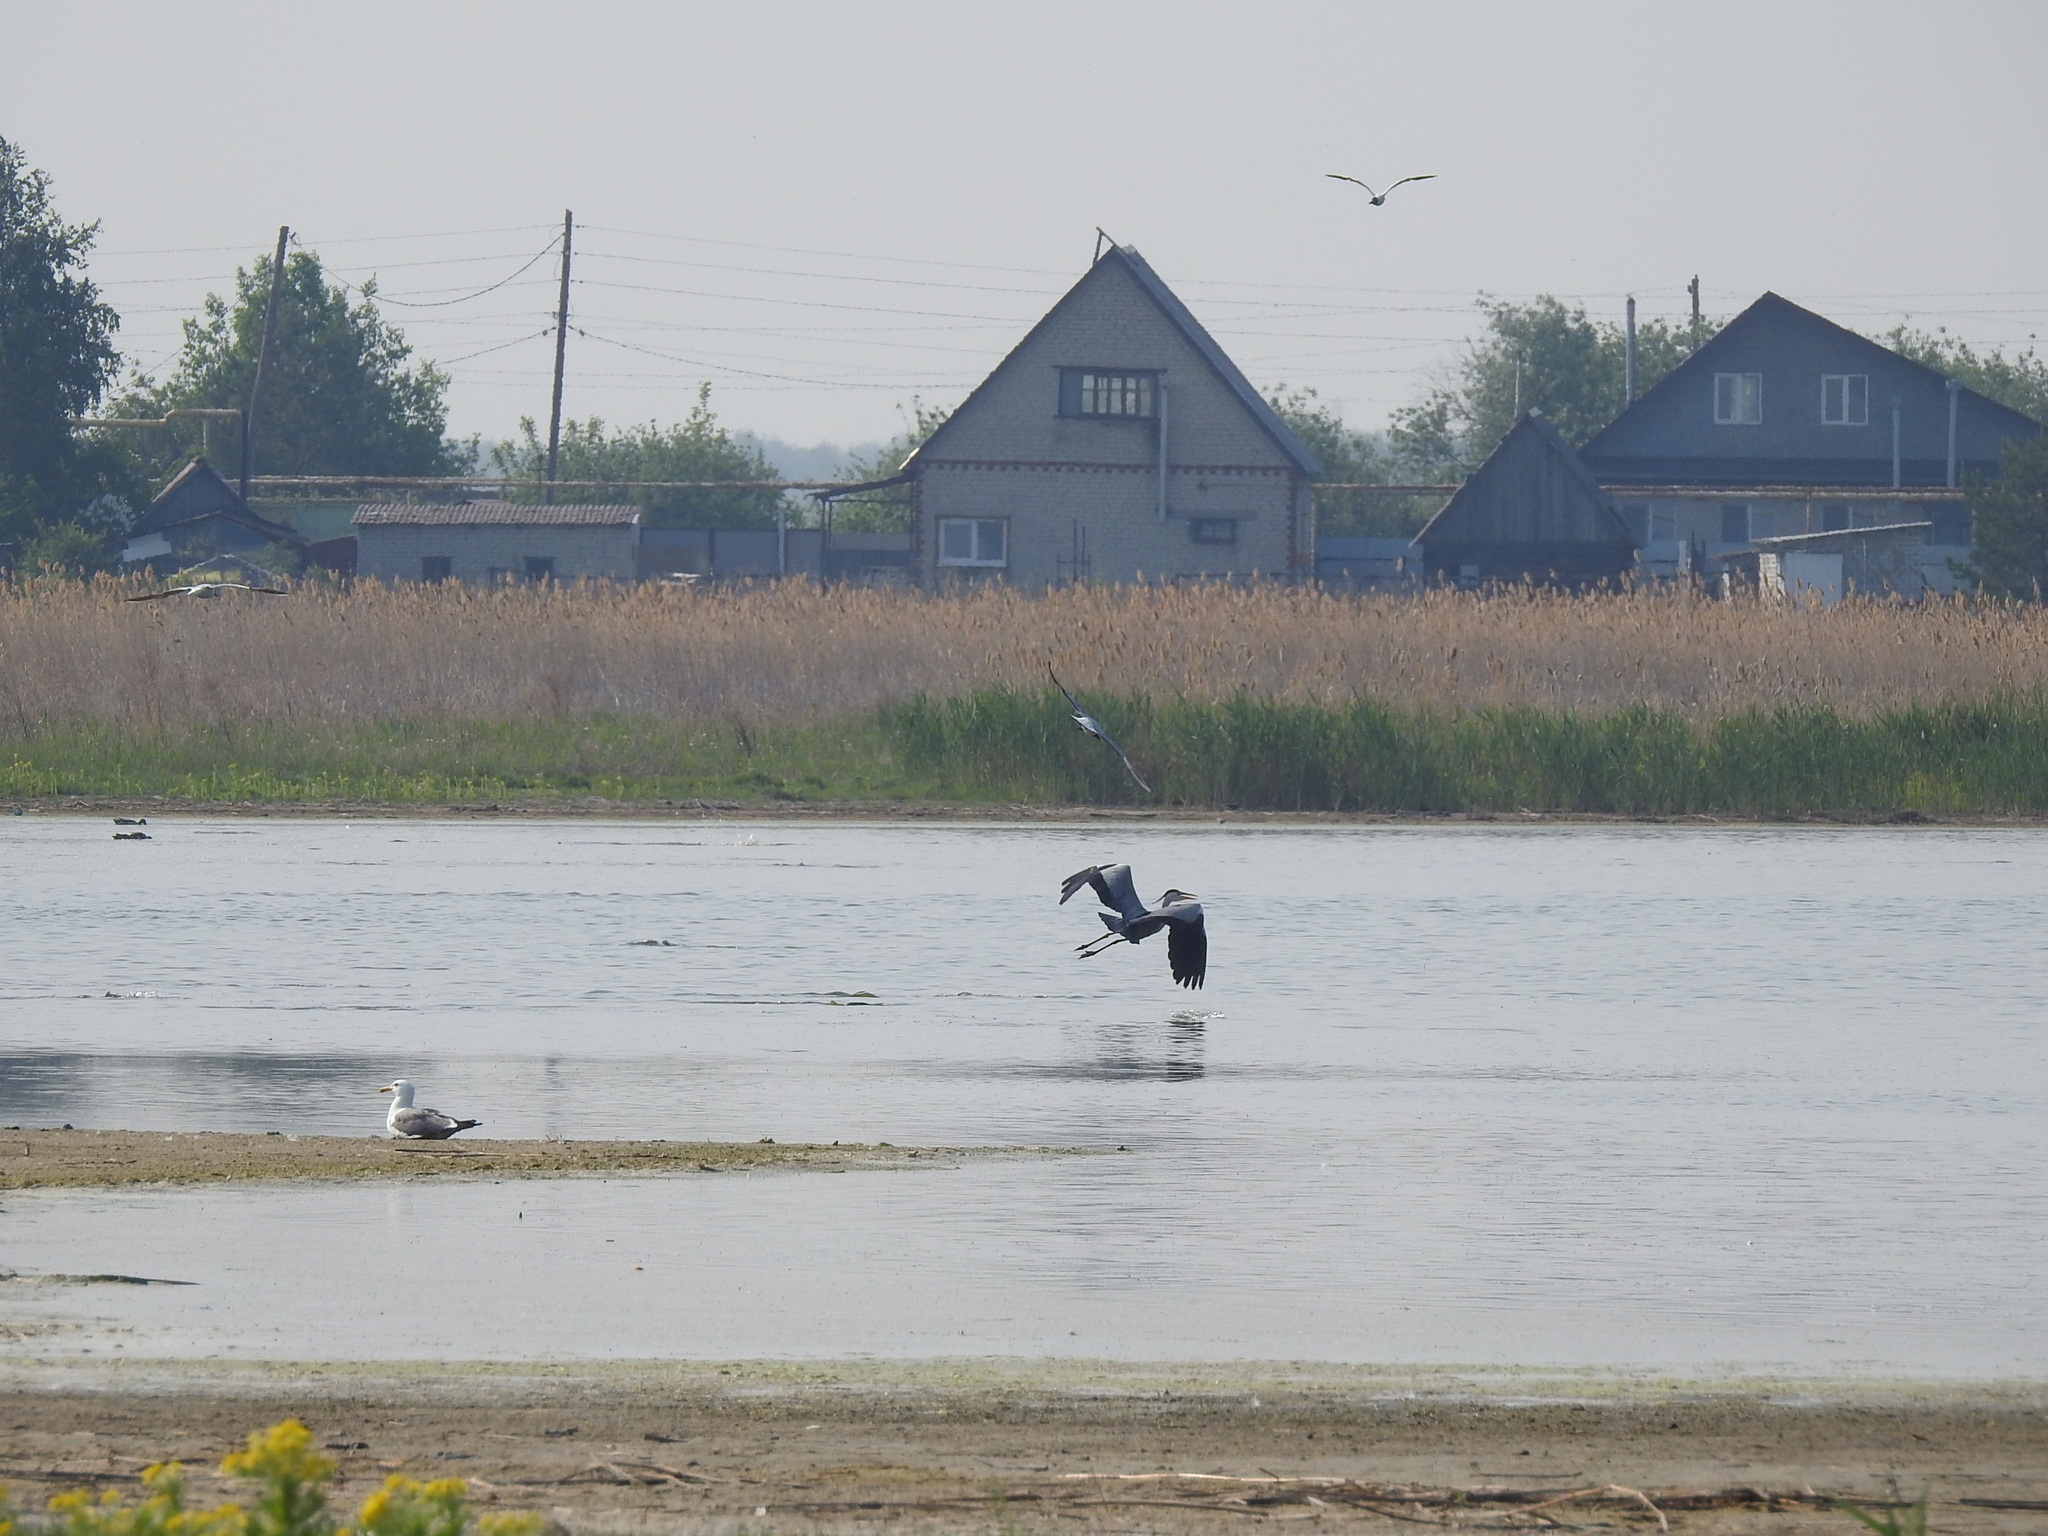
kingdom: Animalia
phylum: Chordata
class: Aves
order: Pelecaniformes
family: Ardeidae
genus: Ardea
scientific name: Ardea cinerea
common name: Grey heron
